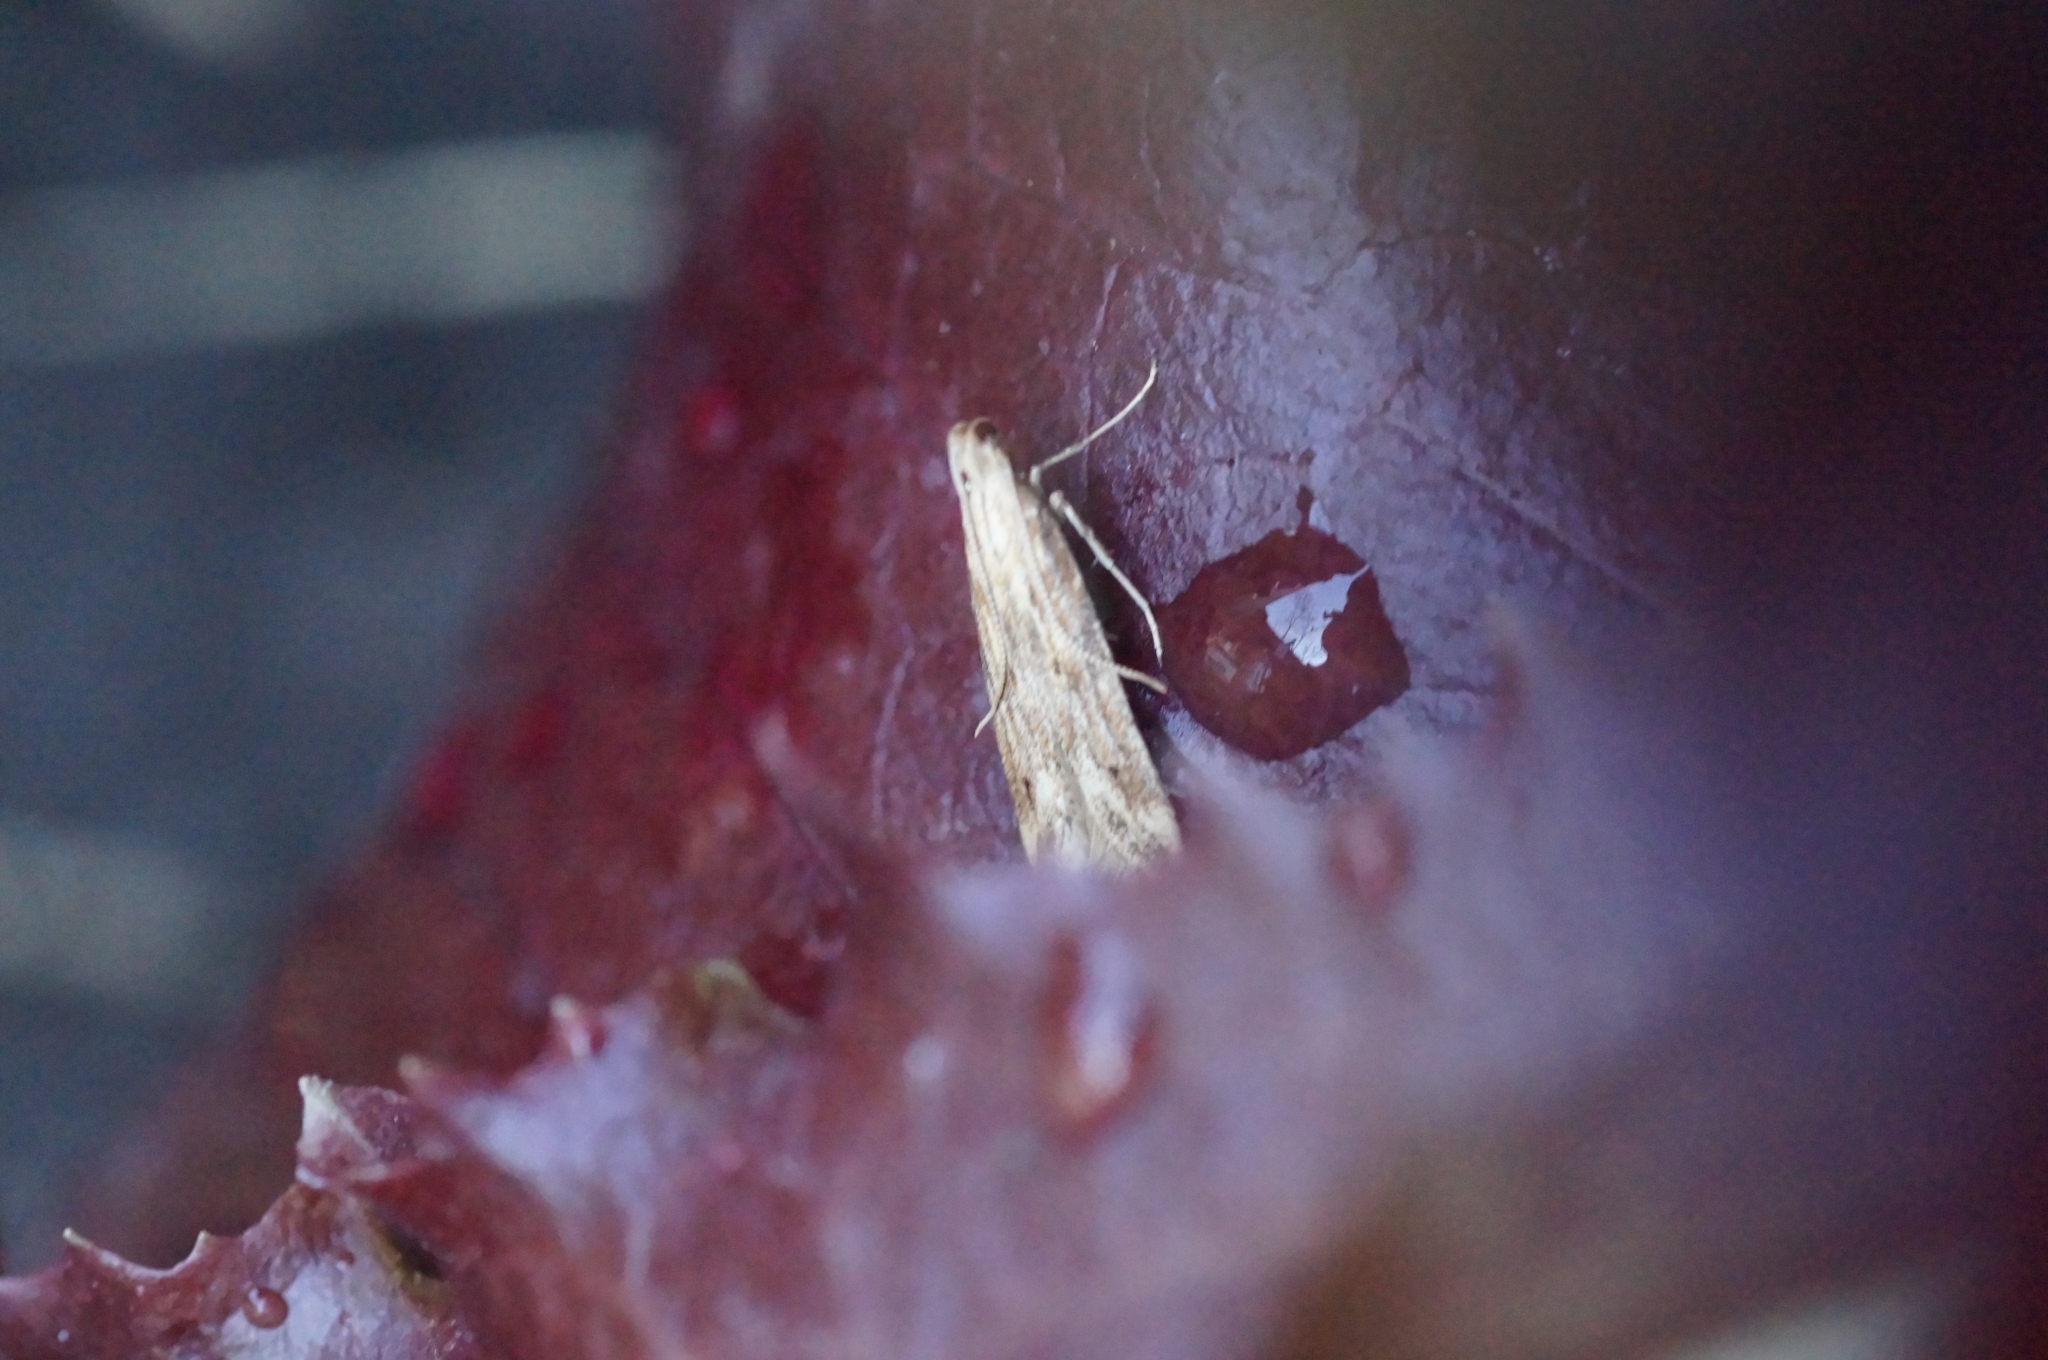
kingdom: Animalia
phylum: Arthropoda
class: Insecta
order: Lepidoptera
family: Gelechiidae
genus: Metzneria
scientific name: Metzneria lappella
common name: Burdock neb
